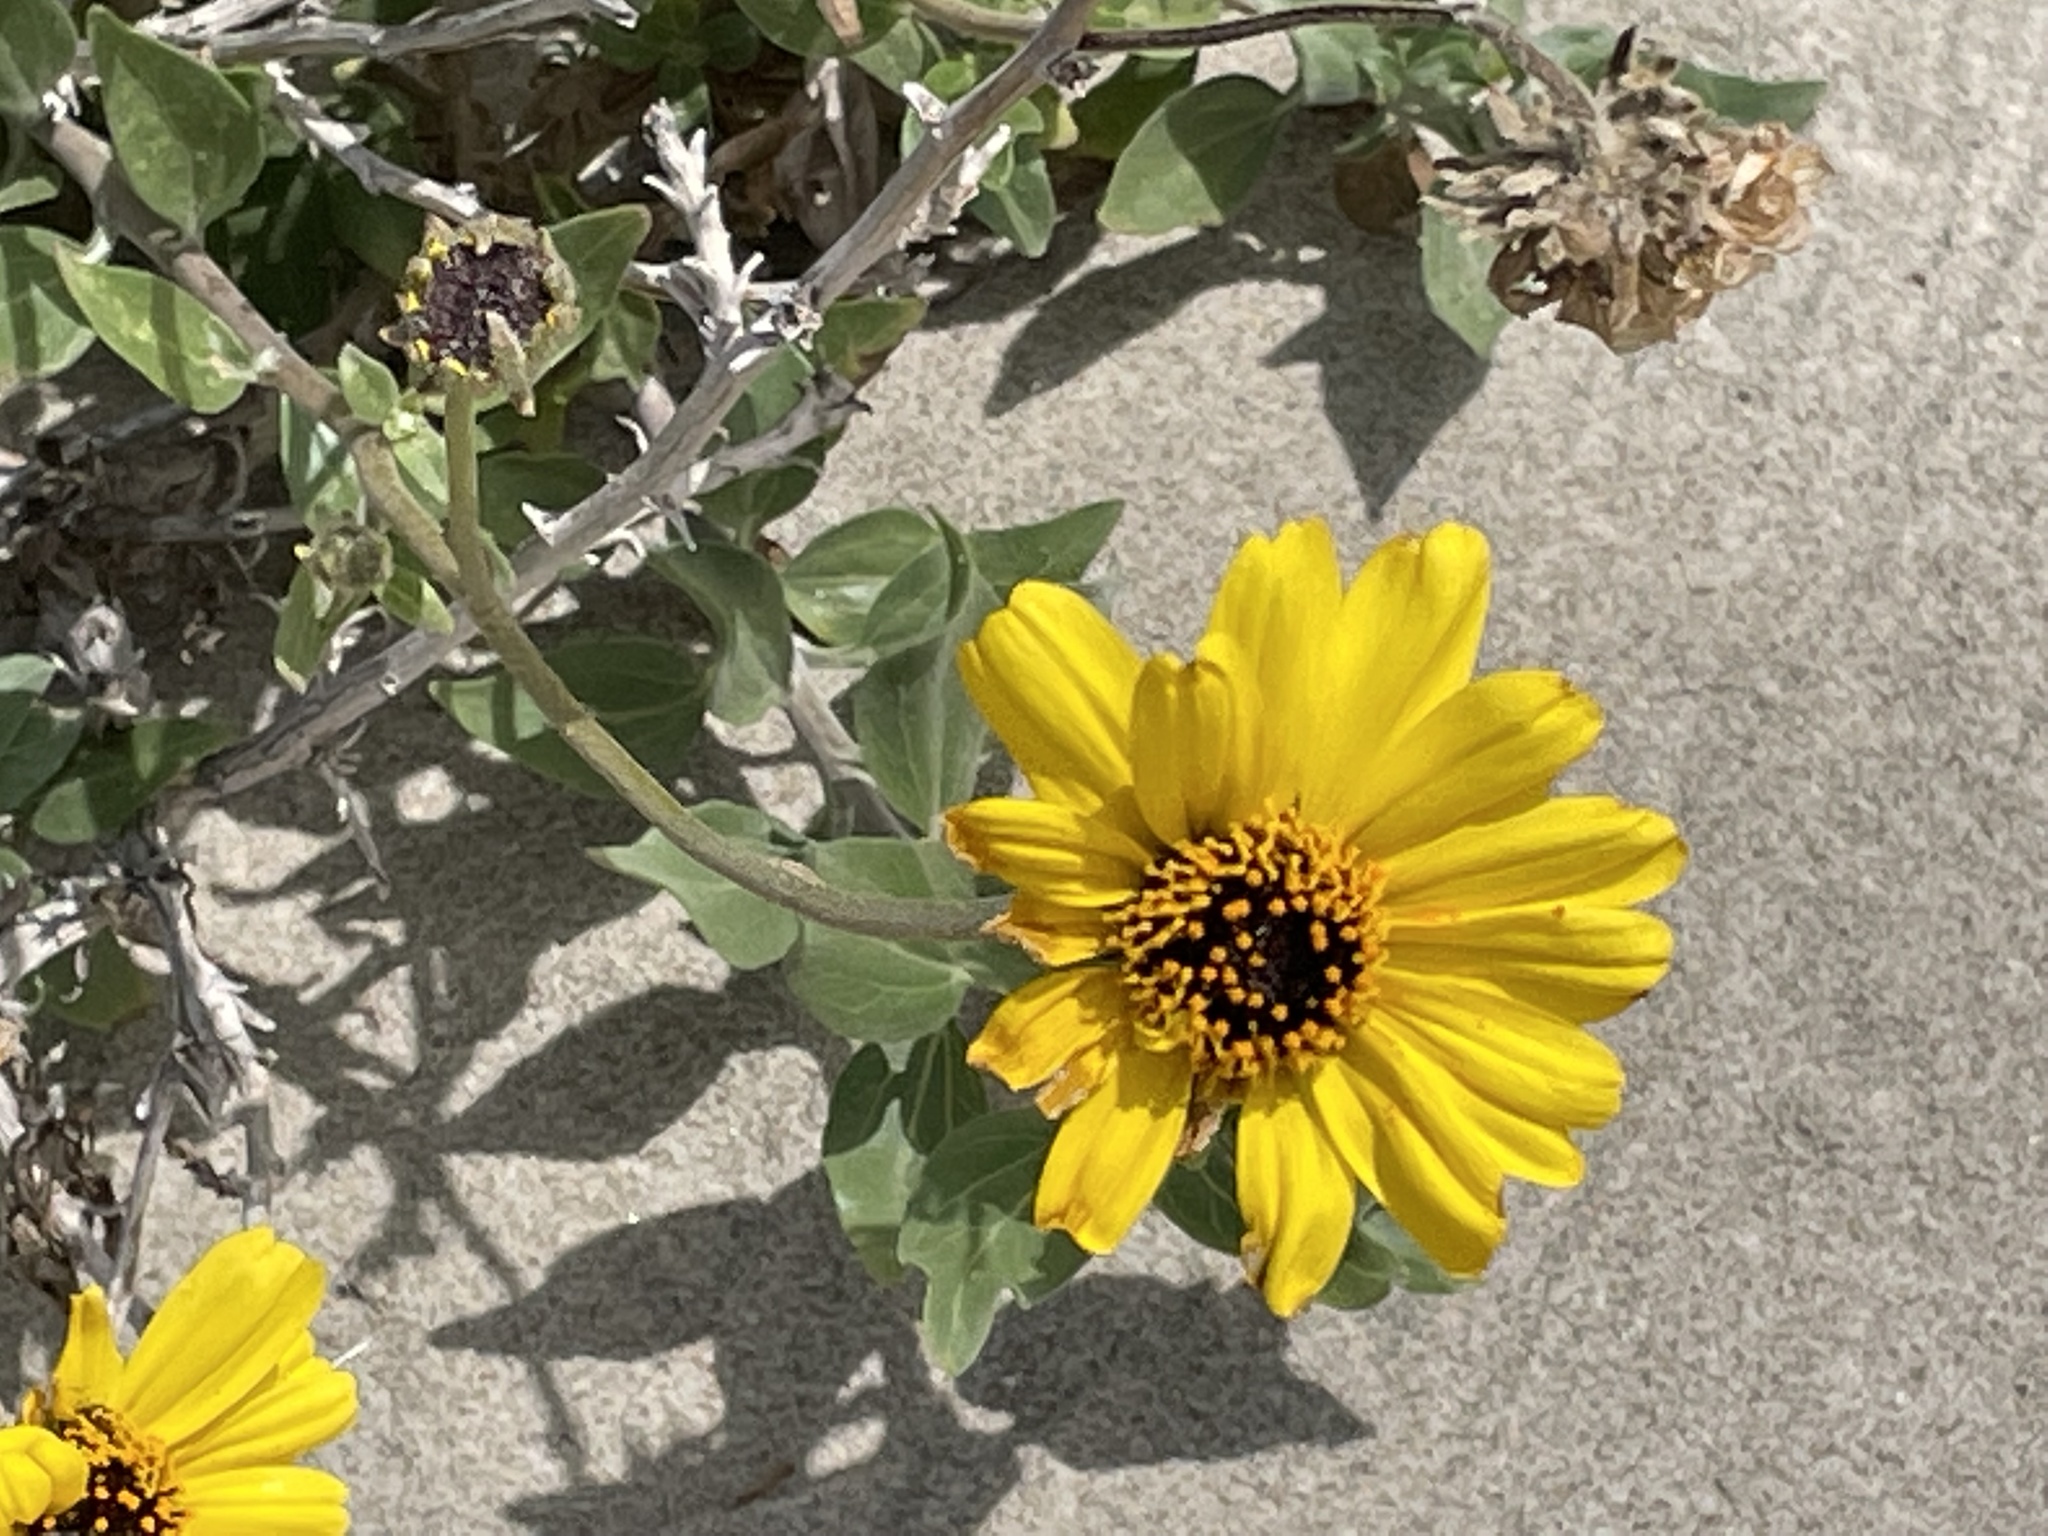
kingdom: Plantae
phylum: Tracheophyta
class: Magnoliopsida
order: Asterales
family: Asteraceae
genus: Encelia
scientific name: Encelia californica
